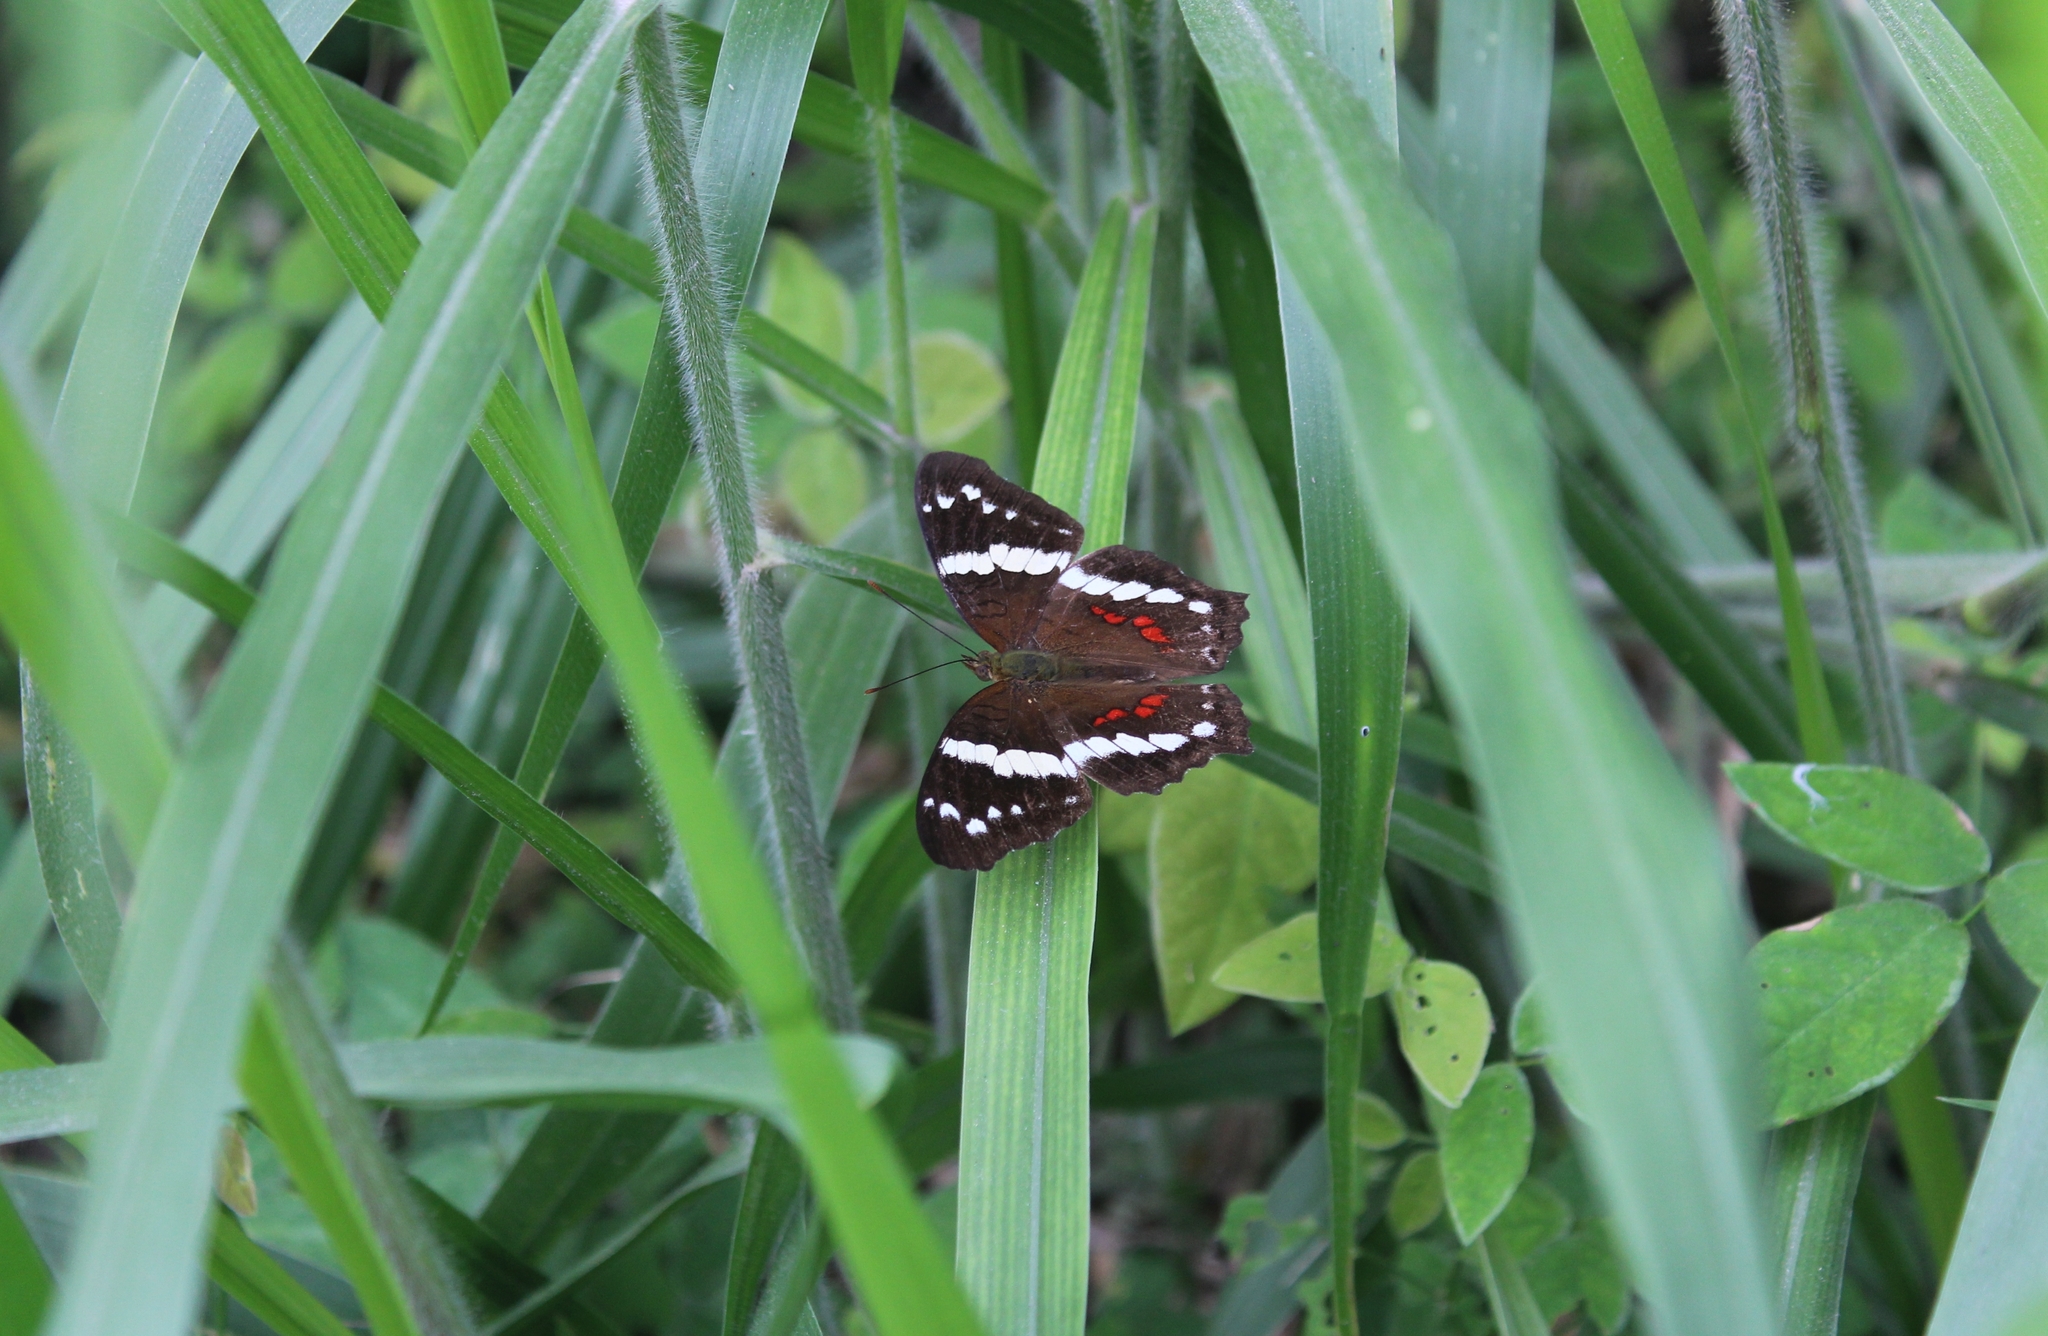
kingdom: Animalia
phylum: Arthropoda
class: Insecta
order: Lepidoptera
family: Nymphalidae
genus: Anartia
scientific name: Anartia fatima
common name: Banded peacock
